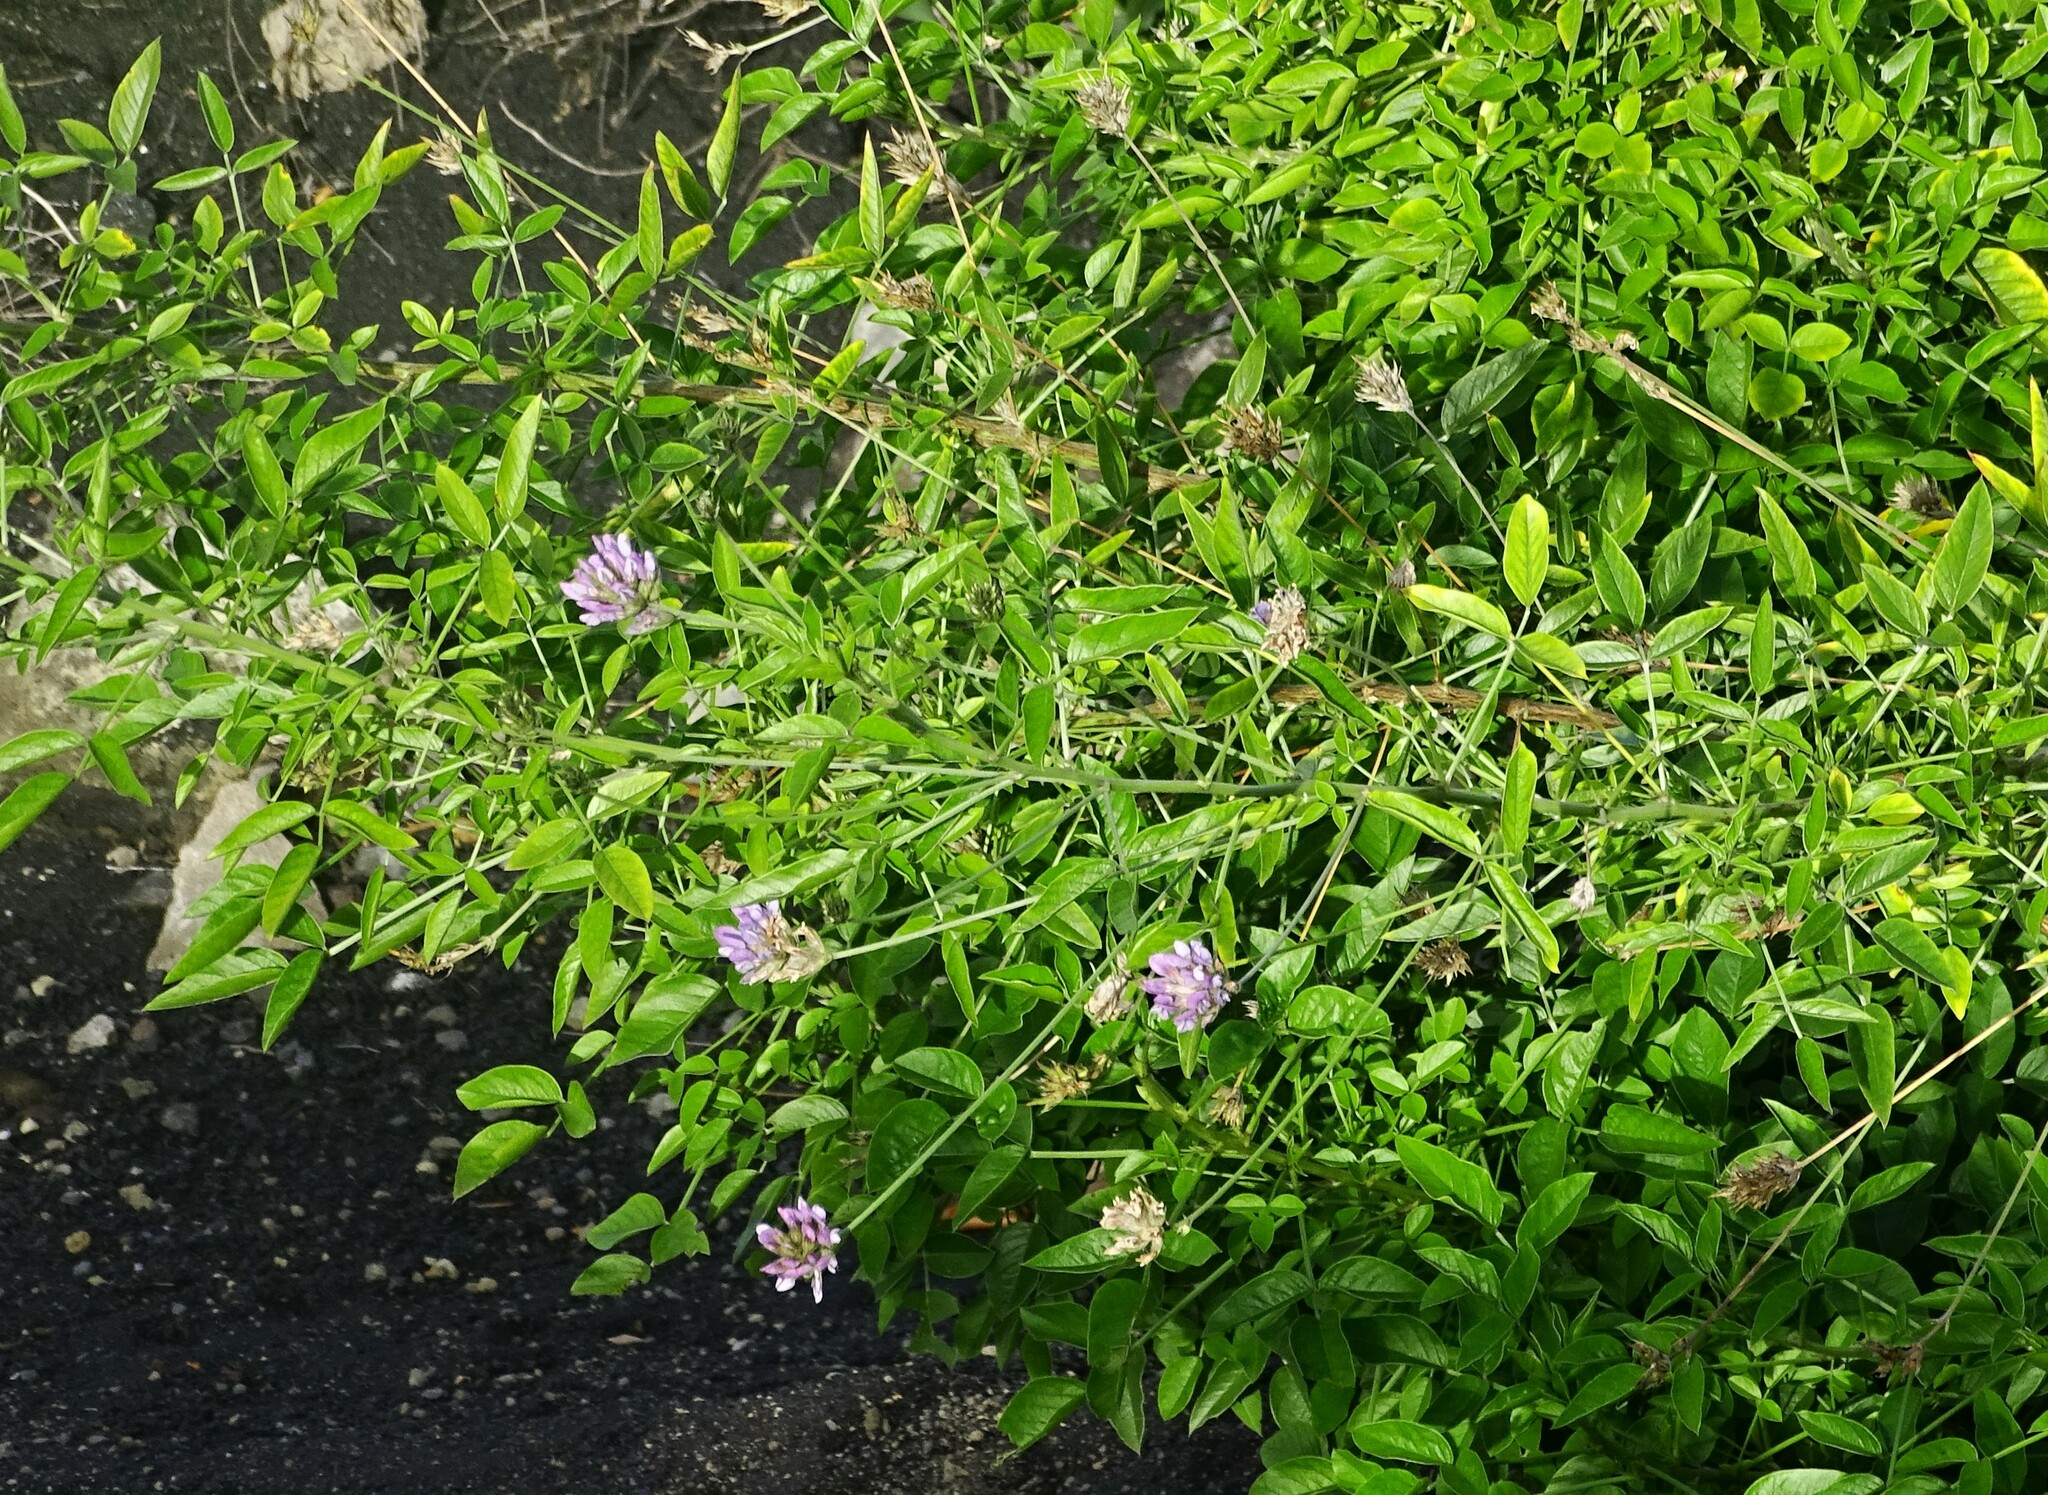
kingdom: Plantae
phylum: Tracheophyta
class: Magnoliopsida
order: Fabales
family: Fabaceae
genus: Bituminaria
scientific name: Bituminaria bituminosa
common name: Arabian pea
